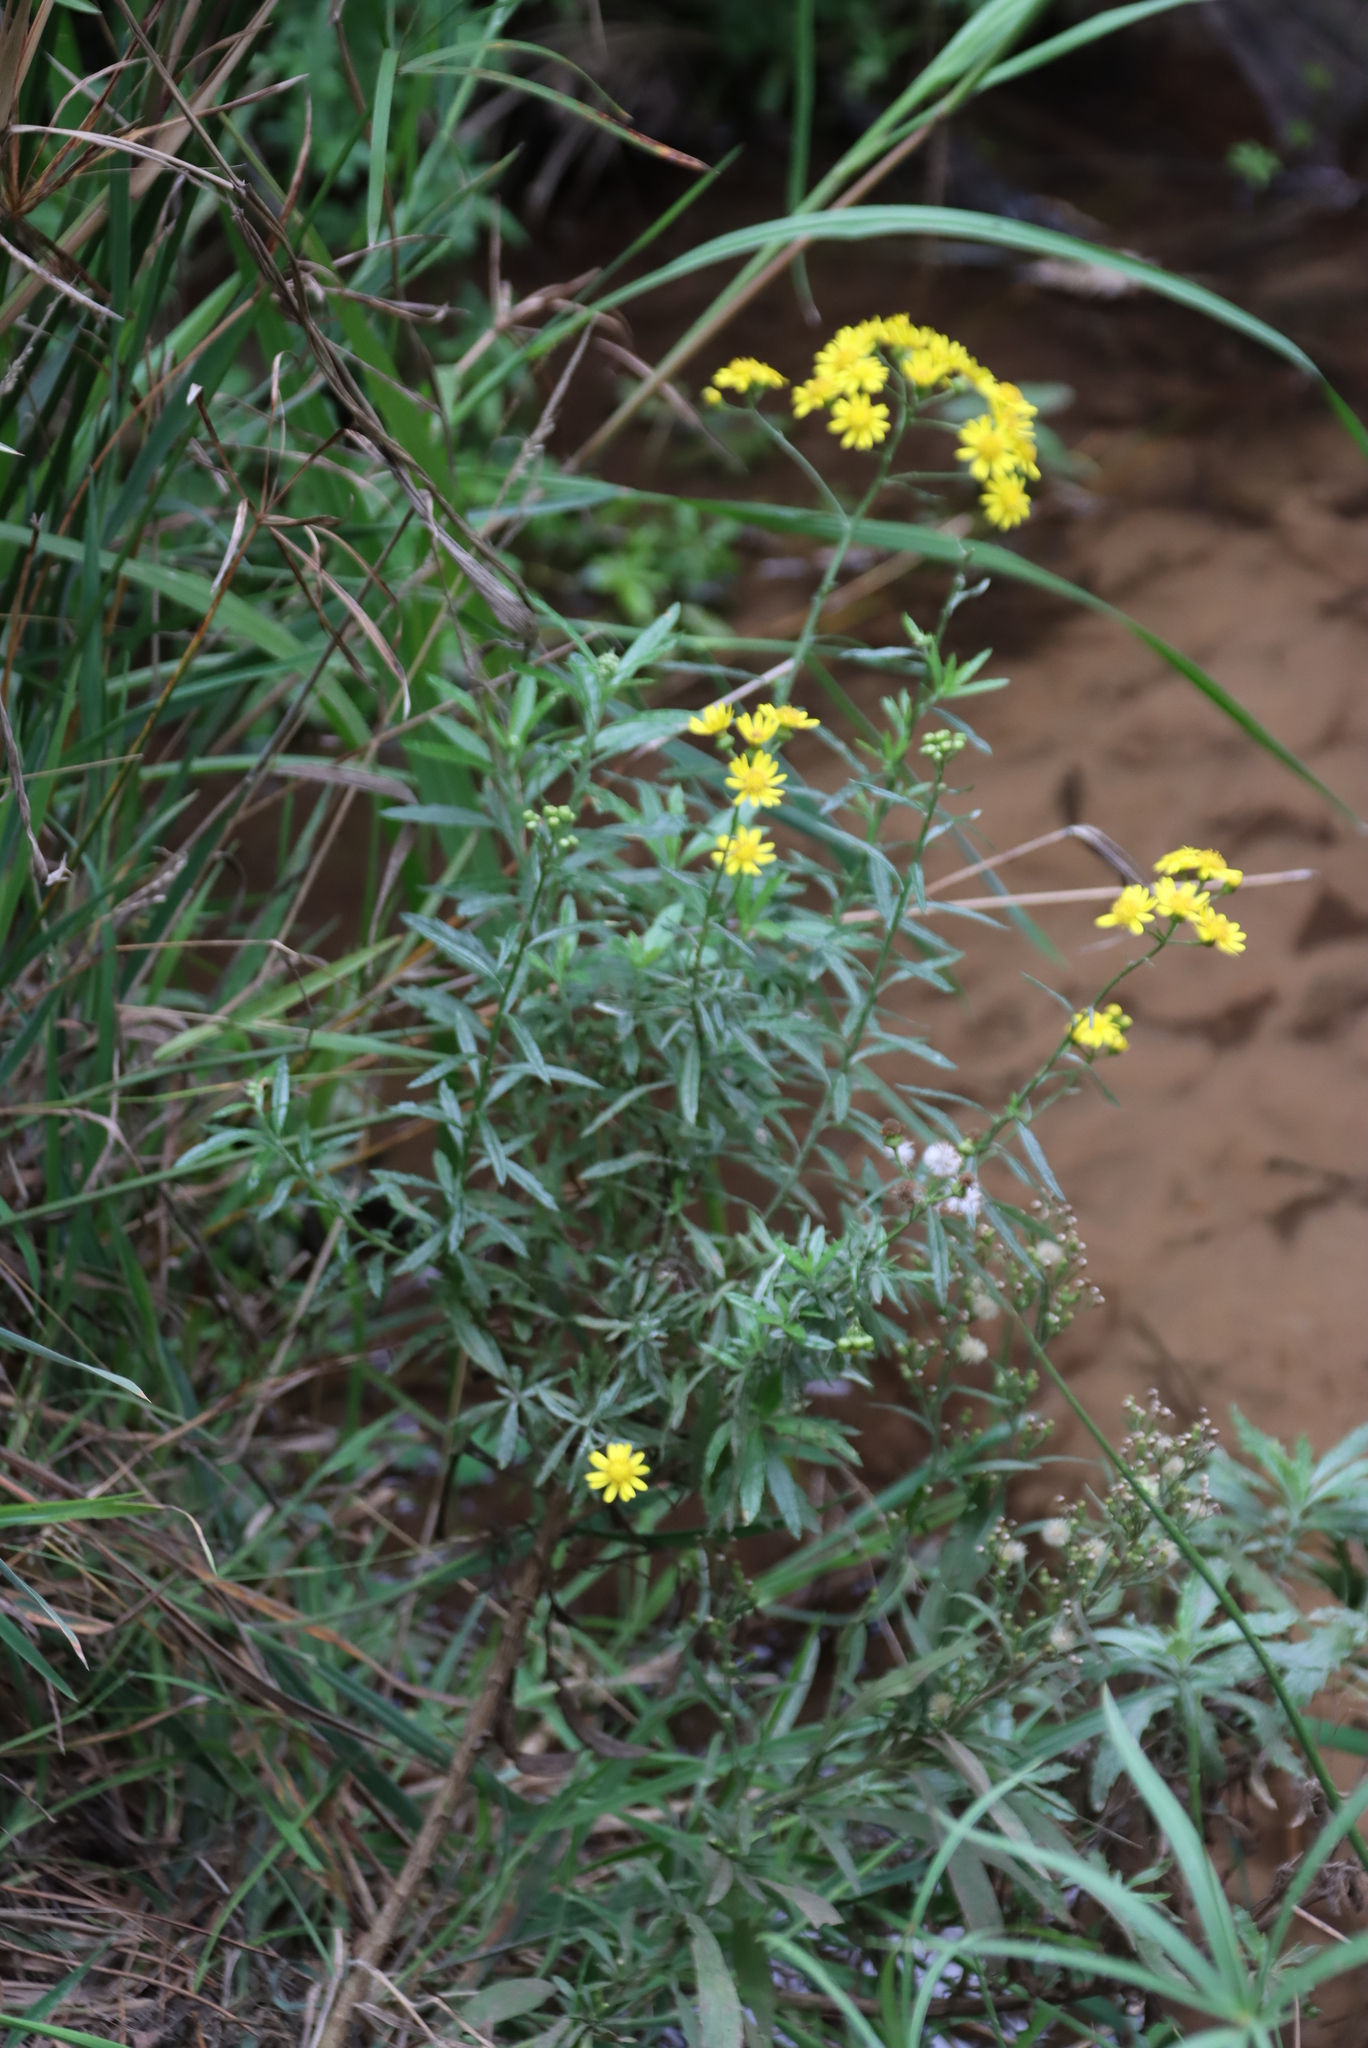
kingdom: Plantae
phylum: Tracheophyta
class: Magnoliopsida
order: Asterales
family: Asteraceae
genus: Senecio
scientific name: Senecio pterophorus
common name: Shoddy ragwort
